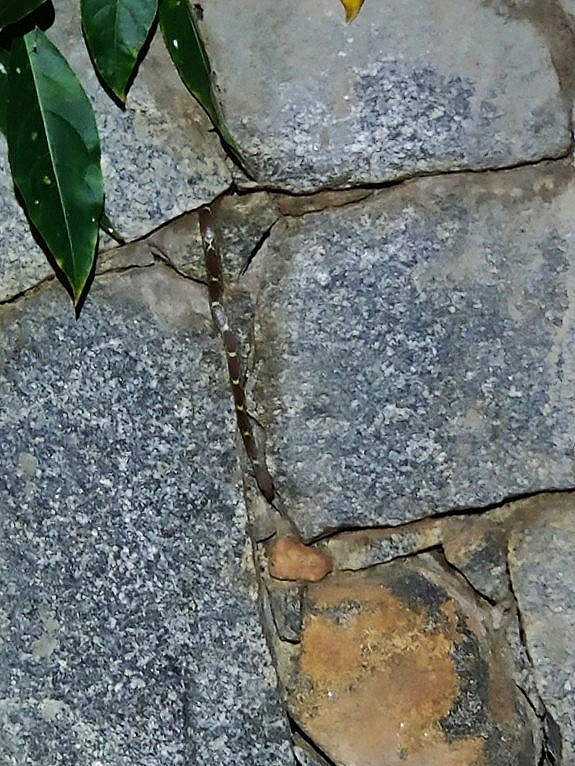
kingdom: Animalia
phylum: Chordata
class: Squamata
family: Colubridae
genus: Lycodon
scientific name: Lycodon fasciolatus
